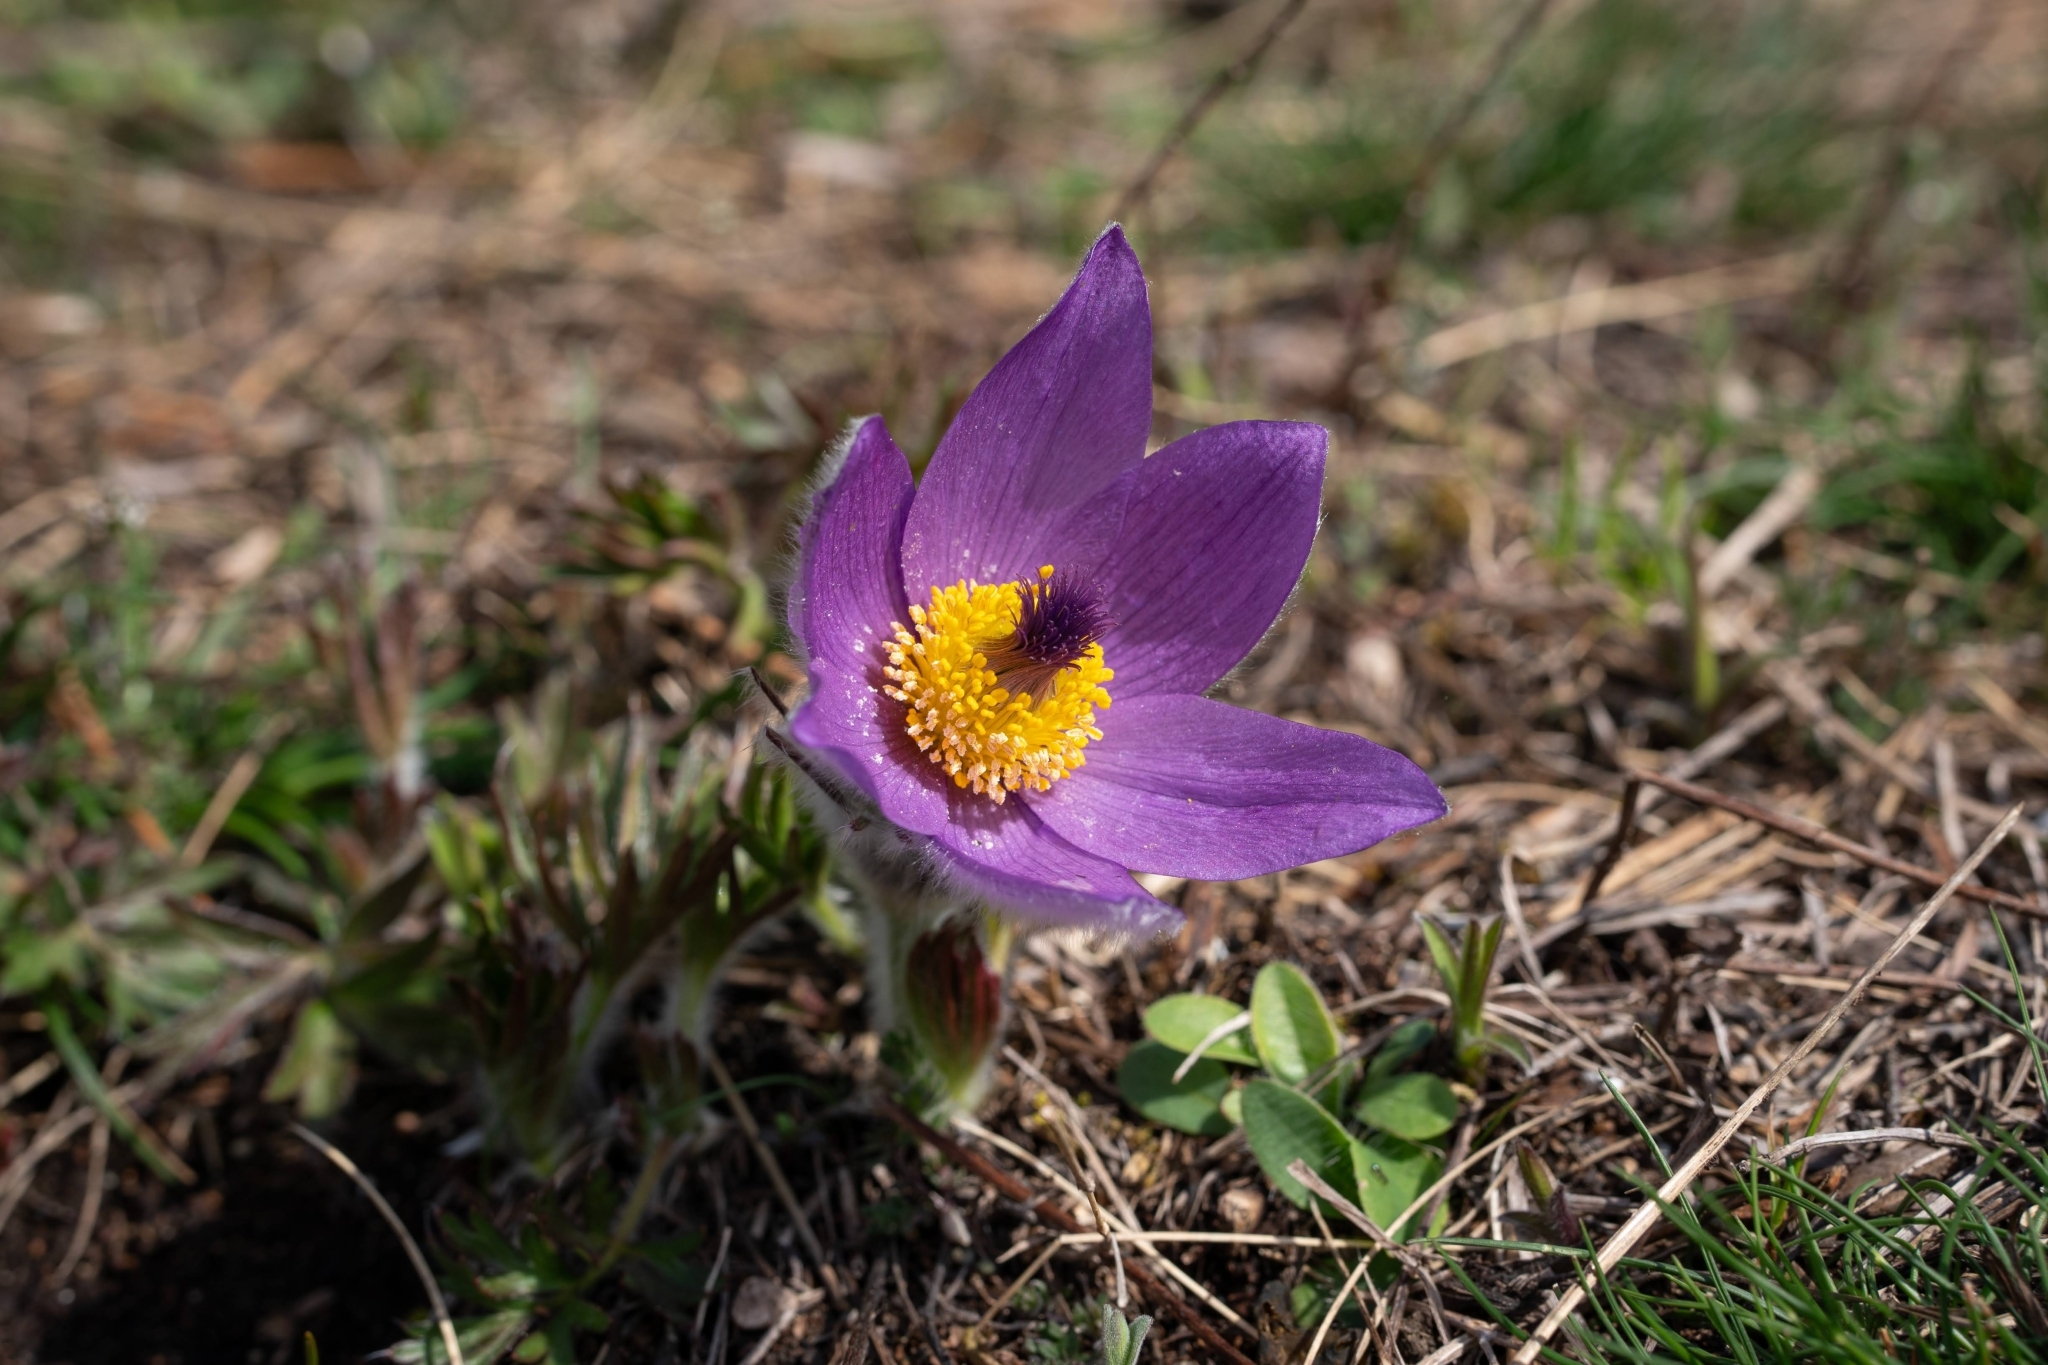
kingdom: Plantae
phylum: Tracheophyta
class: Magnoliopsida
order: Ranunculales
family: Ranunculaceae
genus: Pulsatilla
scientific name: Pulsatilla grandis
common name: Greater pasque flower
